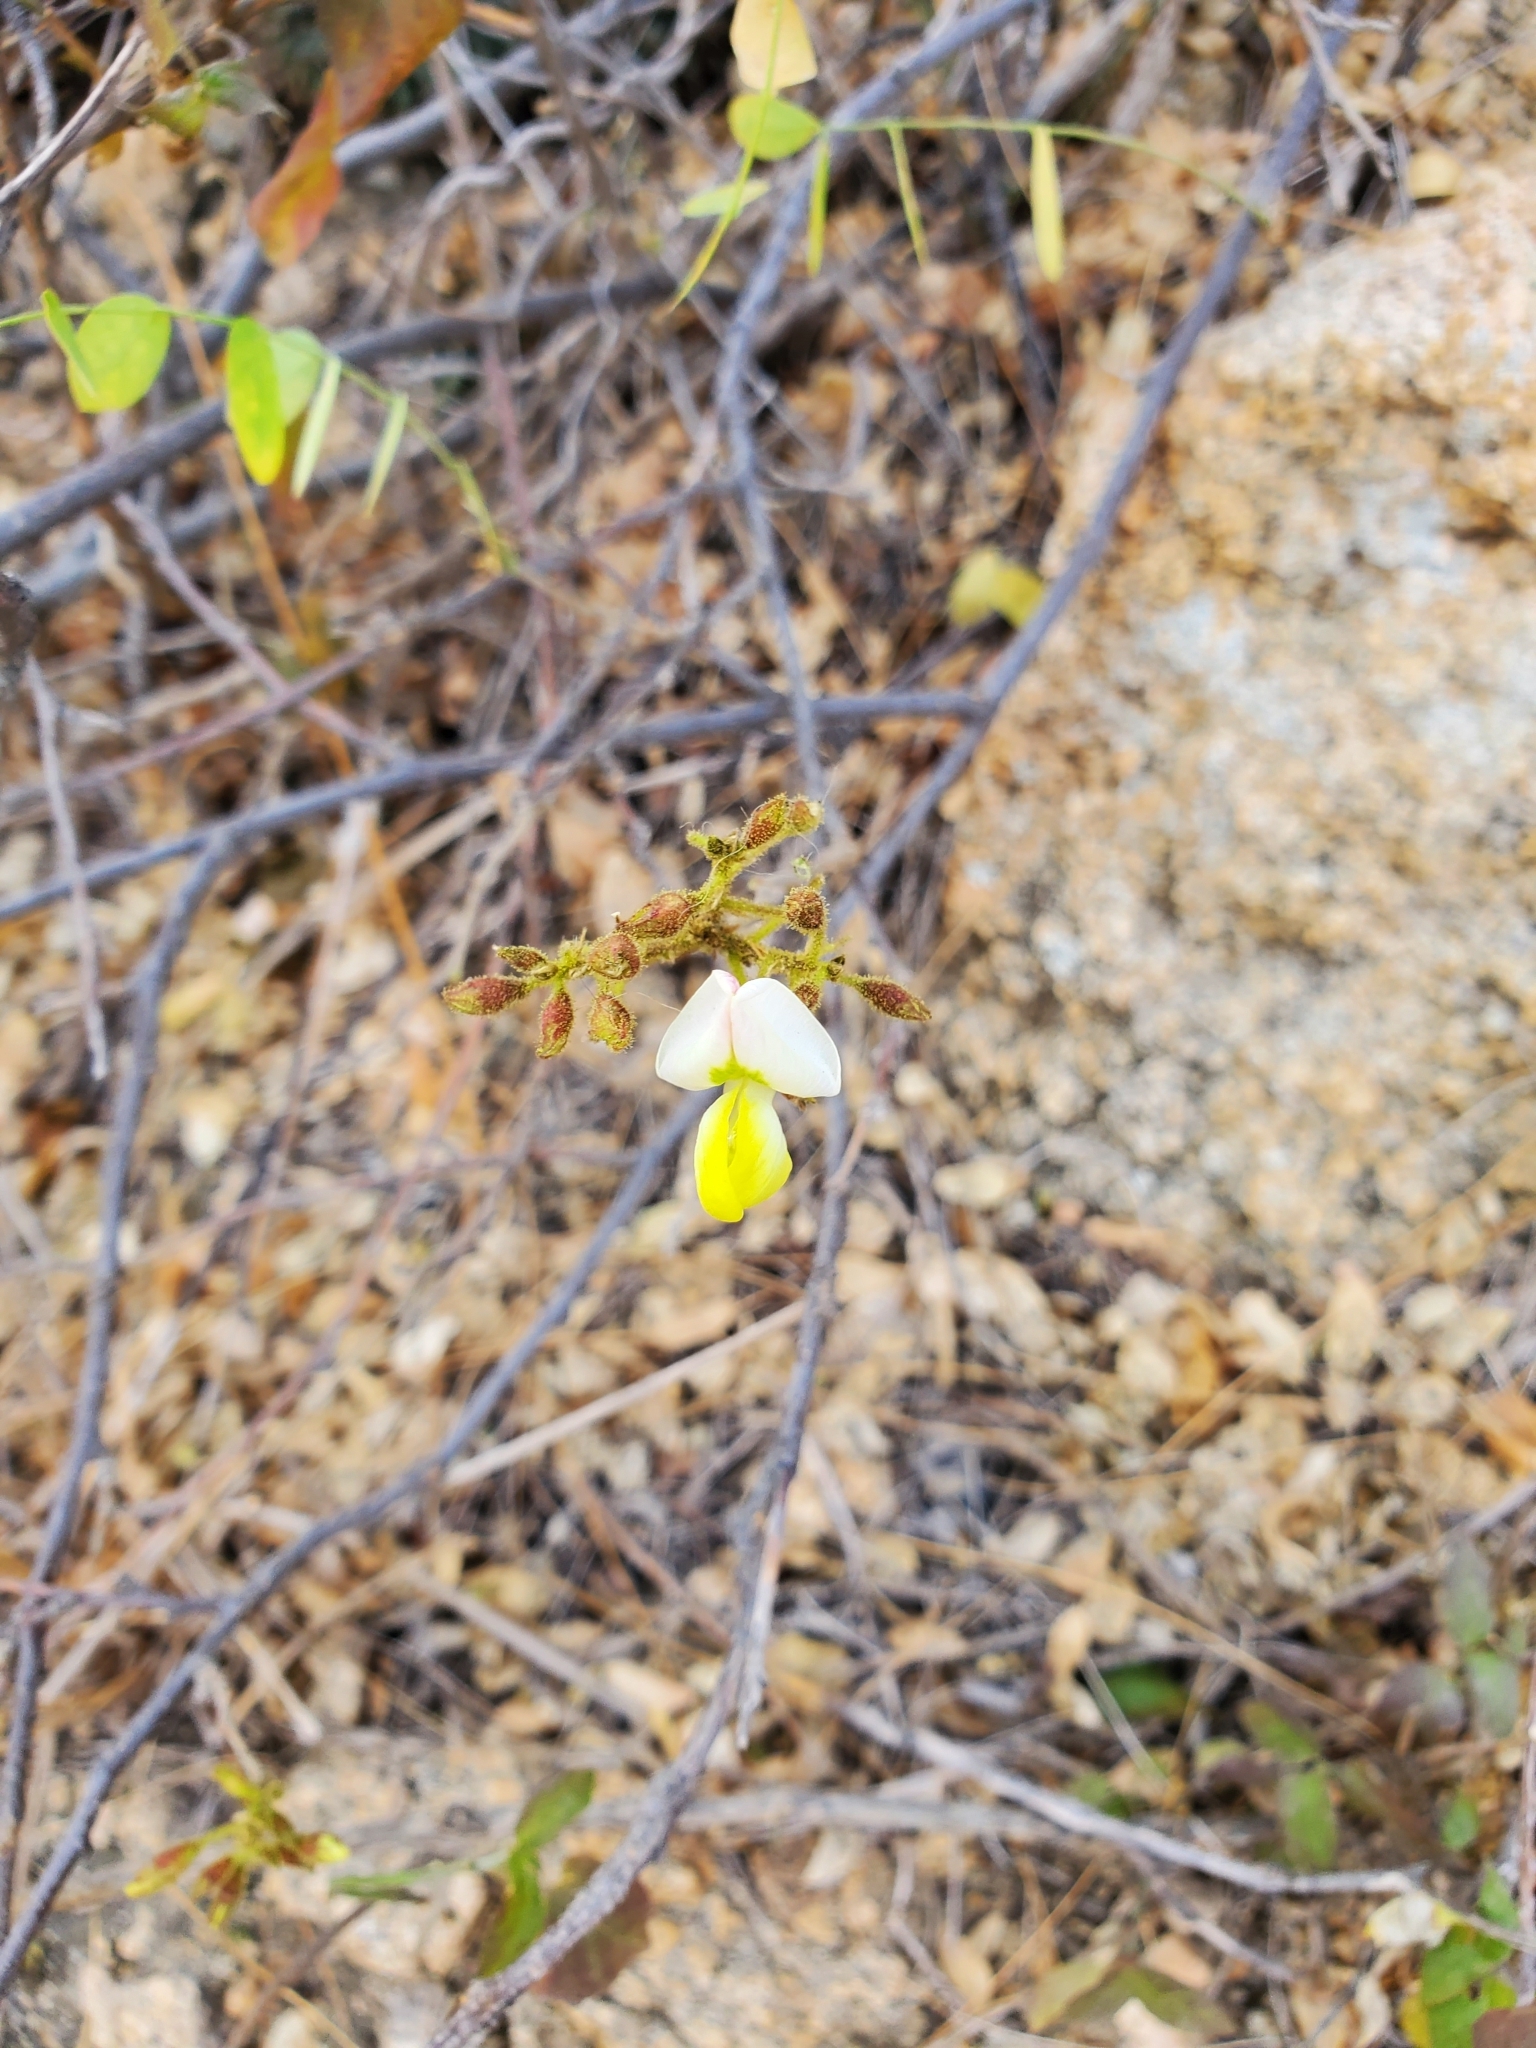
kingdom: Plantae
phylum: Tracheophyta
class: Magnoliopsida
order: Fabales
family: Fabaceae
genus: Coursetia
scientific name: Coursetia glandulosa
